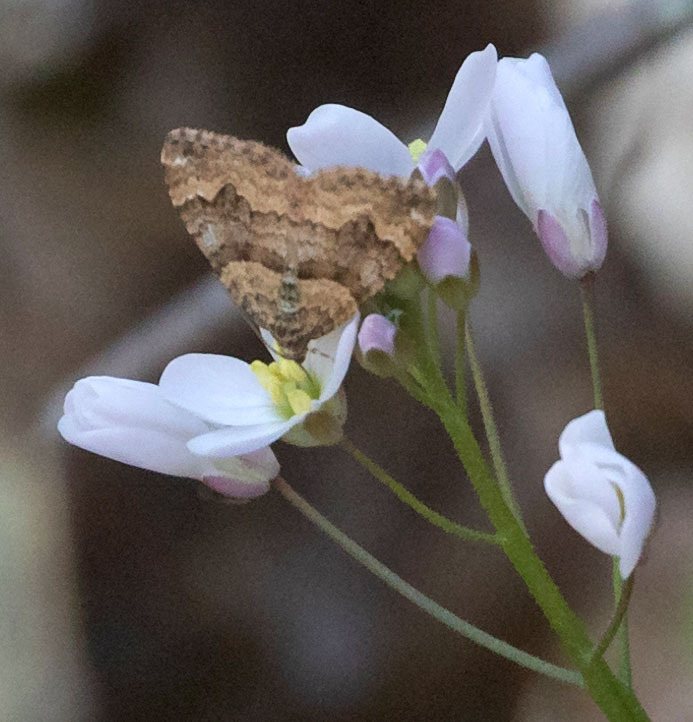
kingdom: Animalia
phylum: Arthropoda
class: Insecta
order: Lepidoptera
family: Geometridae
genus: Epirrhoe
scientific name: Epirrhoe plebeculata
